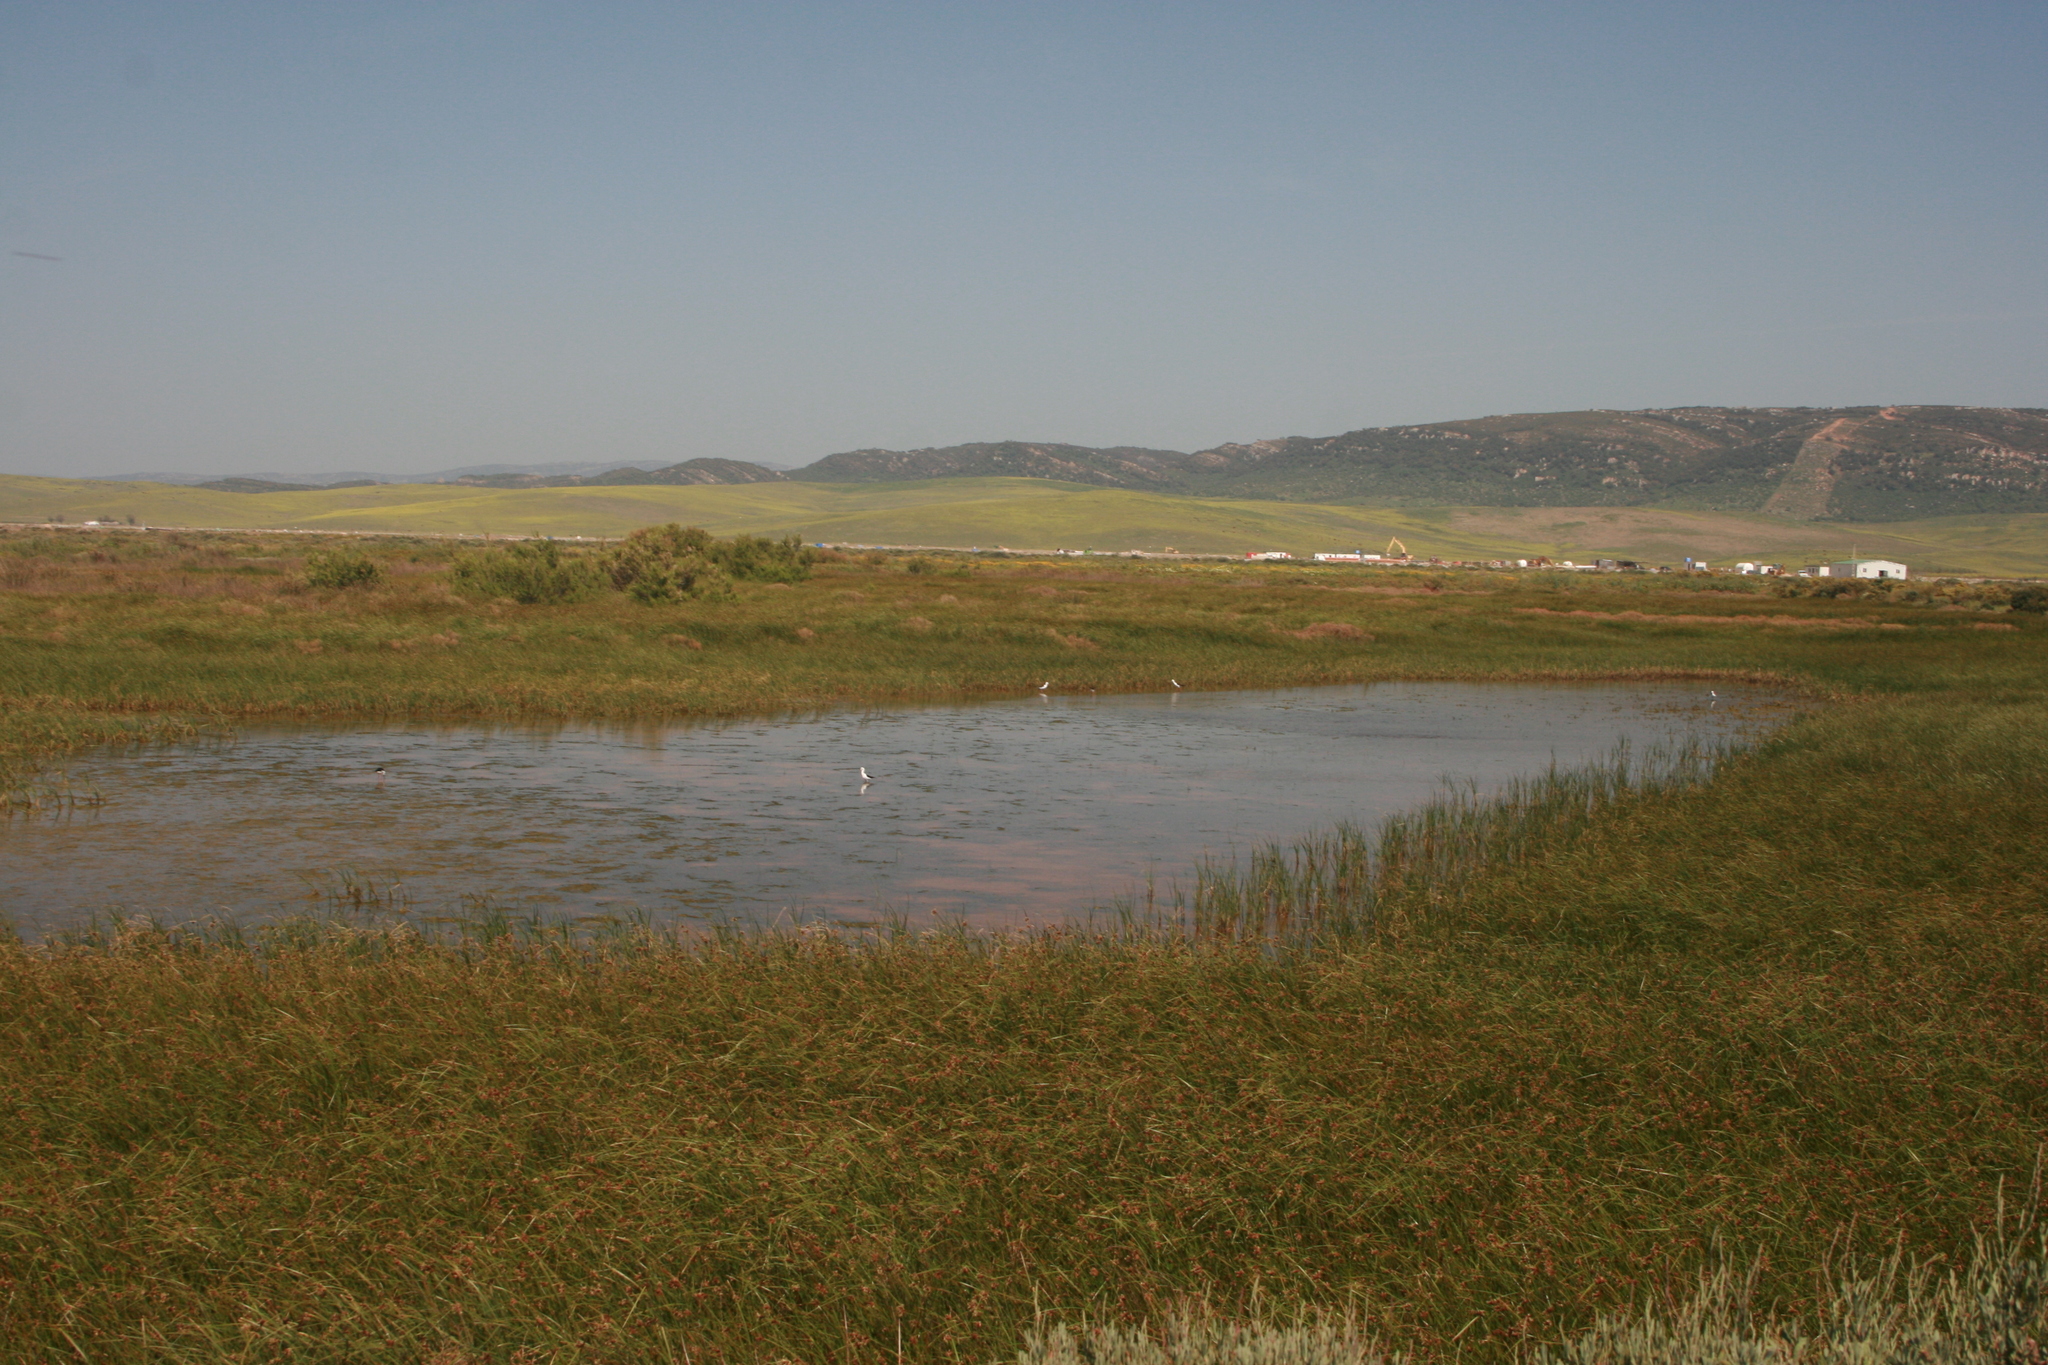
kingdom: Animalia
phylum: Chordata
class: Aves
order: Charadriiformes
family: Recurvirostridae
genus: Himantopus
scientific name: Himantopus himantopus
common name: Black-winged stilt
